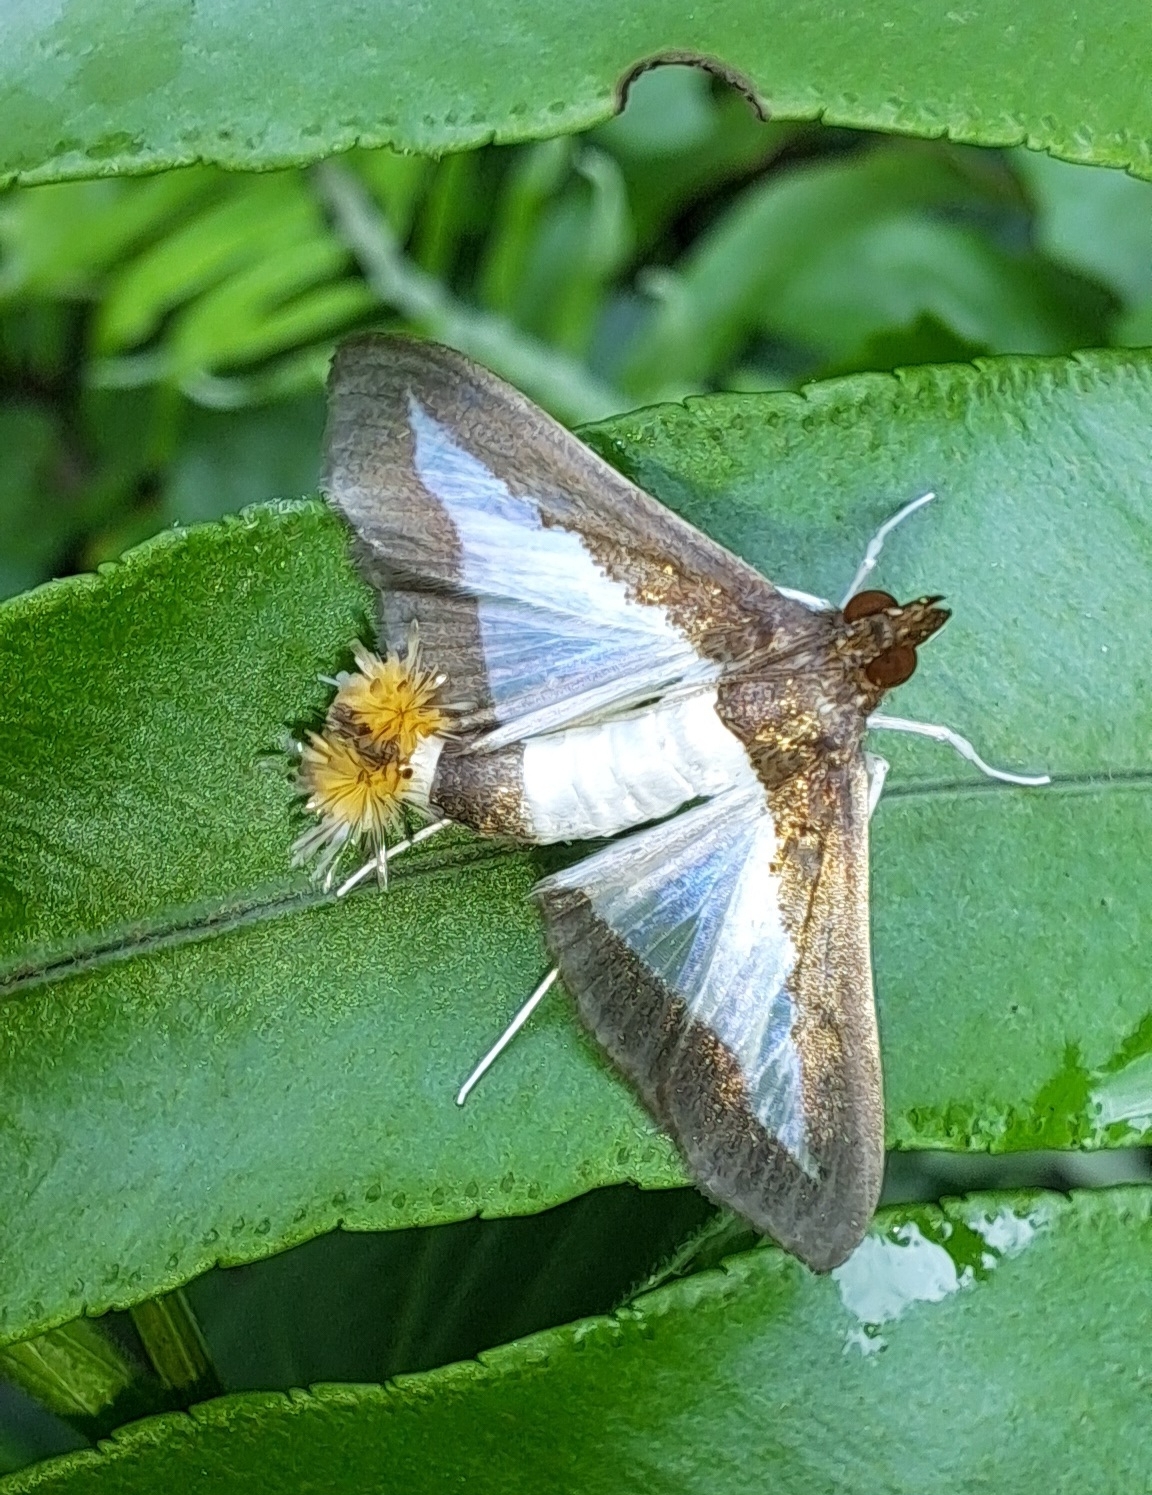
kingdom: Animalia
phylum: Arthropoda
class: Insecta
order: Lepidoptera
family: Crambidae
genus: Diaphania
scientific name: Diaphania indica
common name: Cucumber moth
